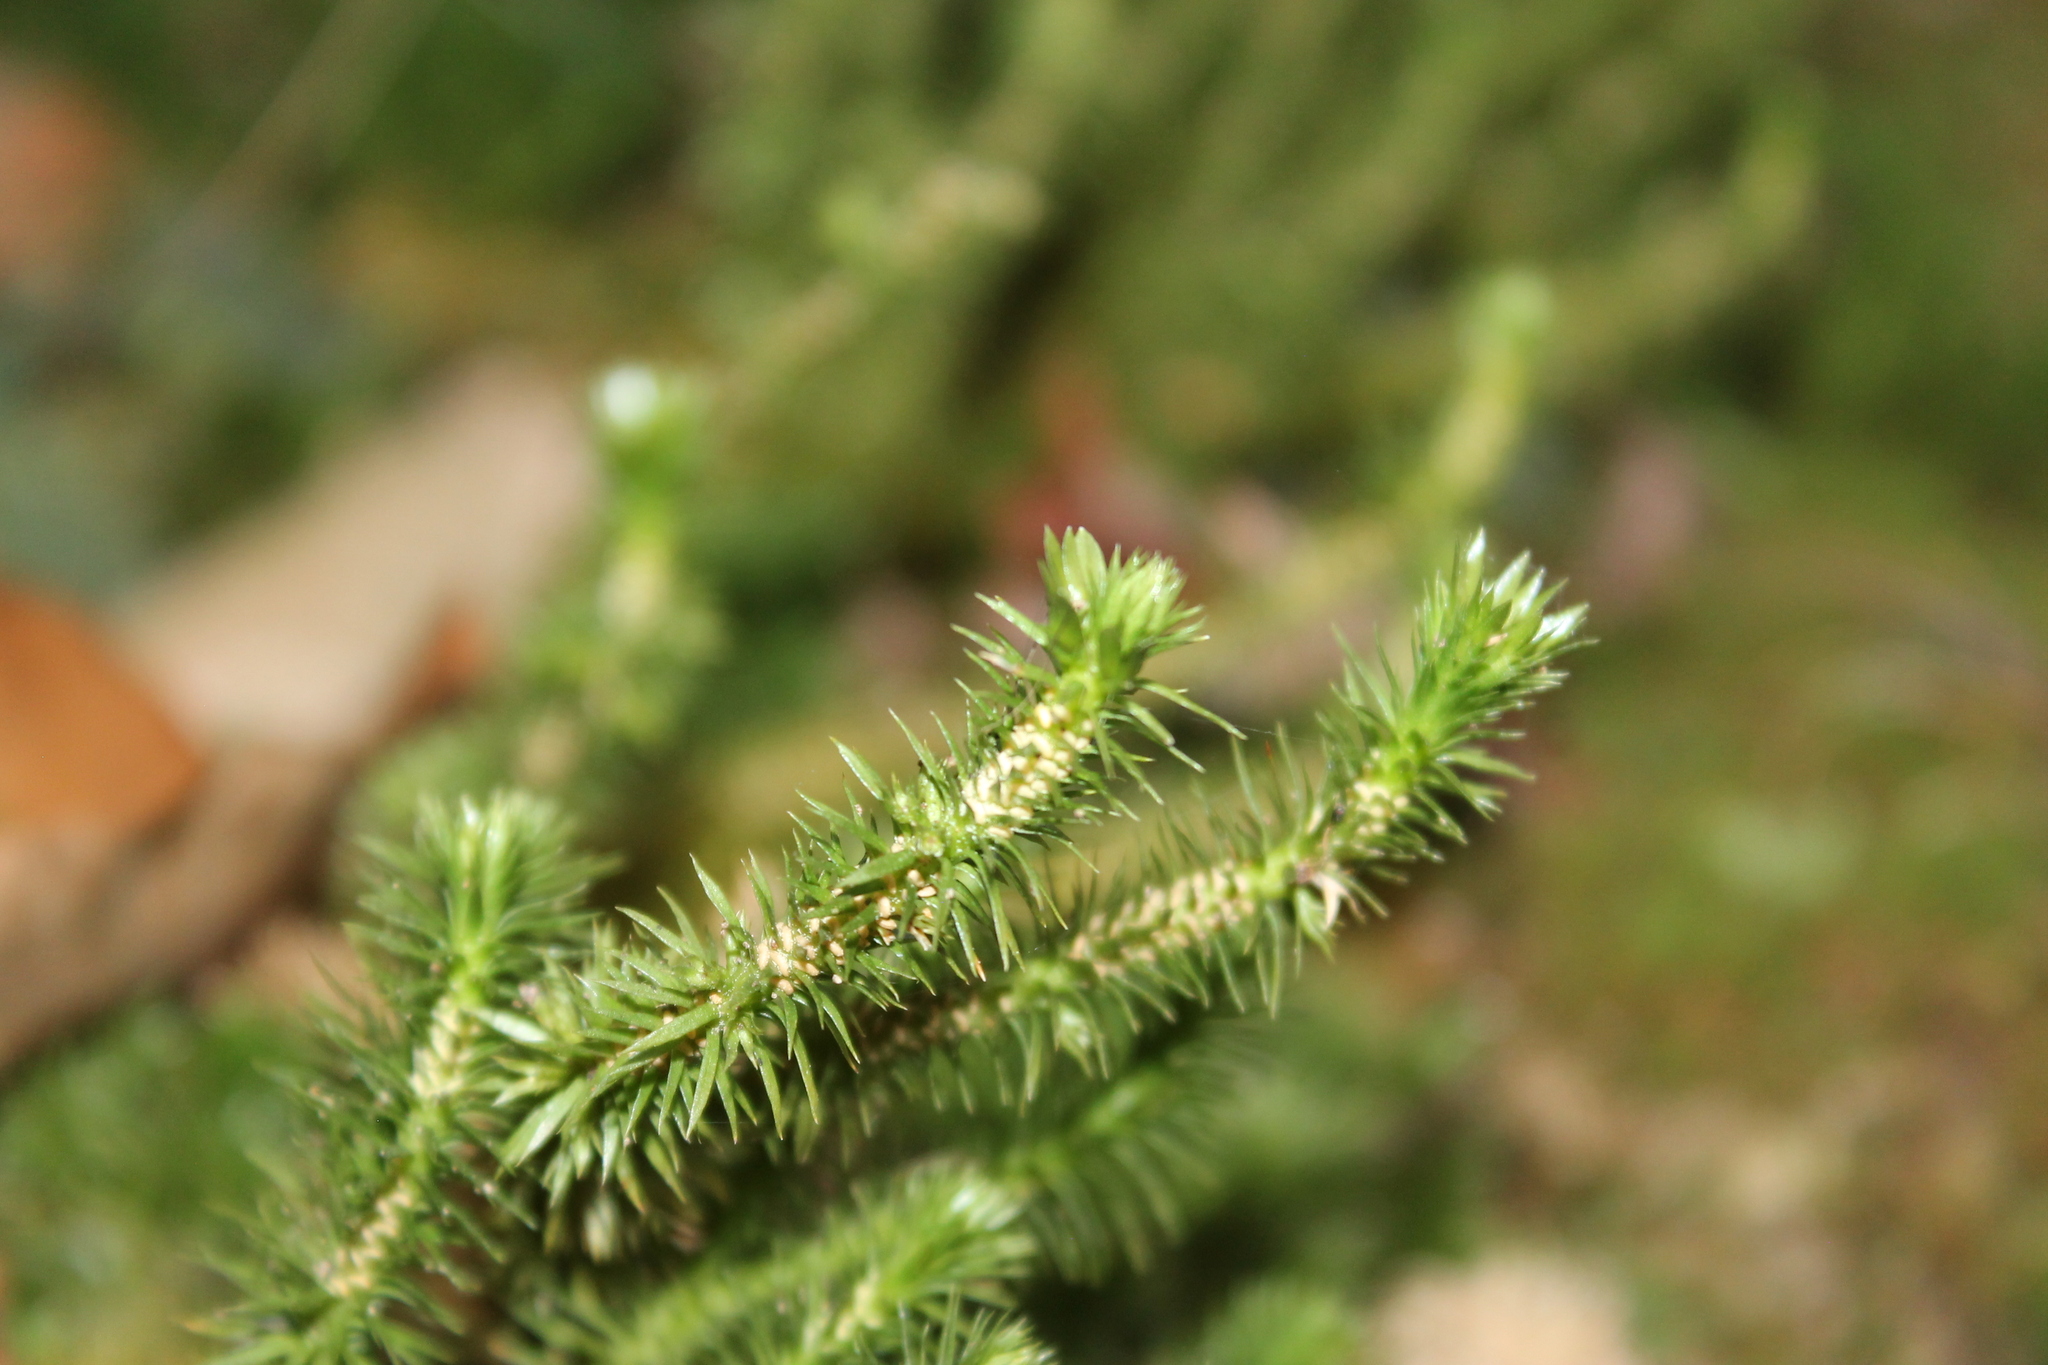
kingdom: Plantae
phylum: Tracheophyta
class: Lycopodiopsida
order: Lycopodiales
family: Lycopodiaceae
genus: Huperzia
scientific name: Huperzia porophila
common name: Rock clubmoss
